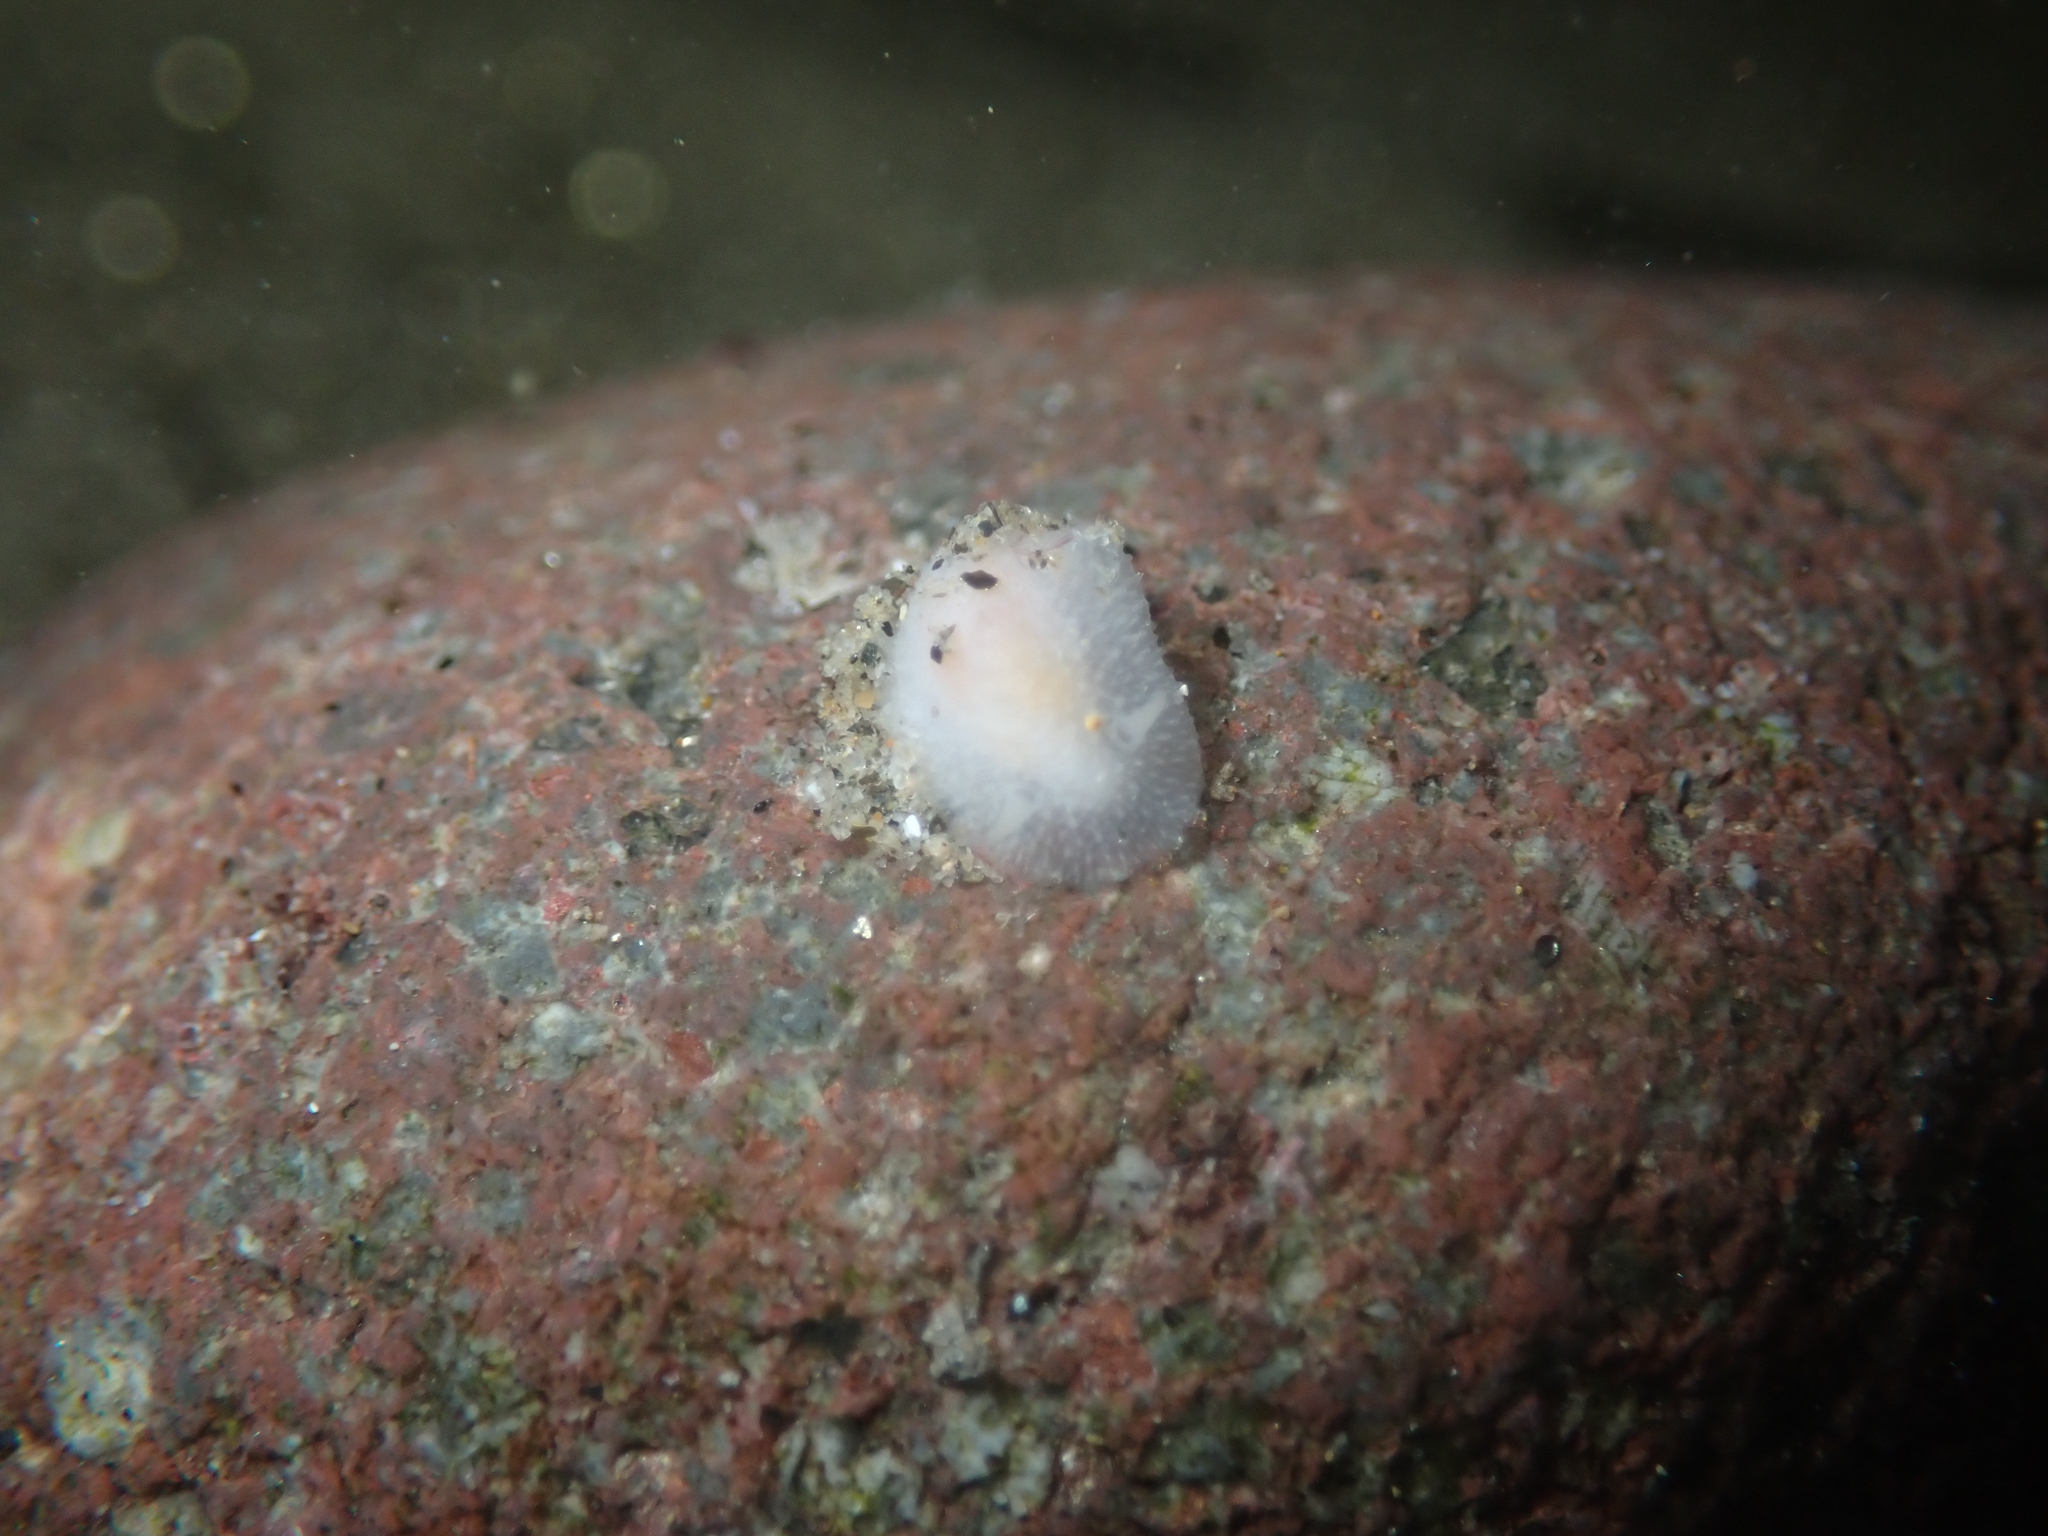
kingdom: Animalia
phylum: Mollusca
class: Gastropoda
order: Nudibranchia
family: Dorididae
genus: Conualevia
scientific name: Conualevia alba
